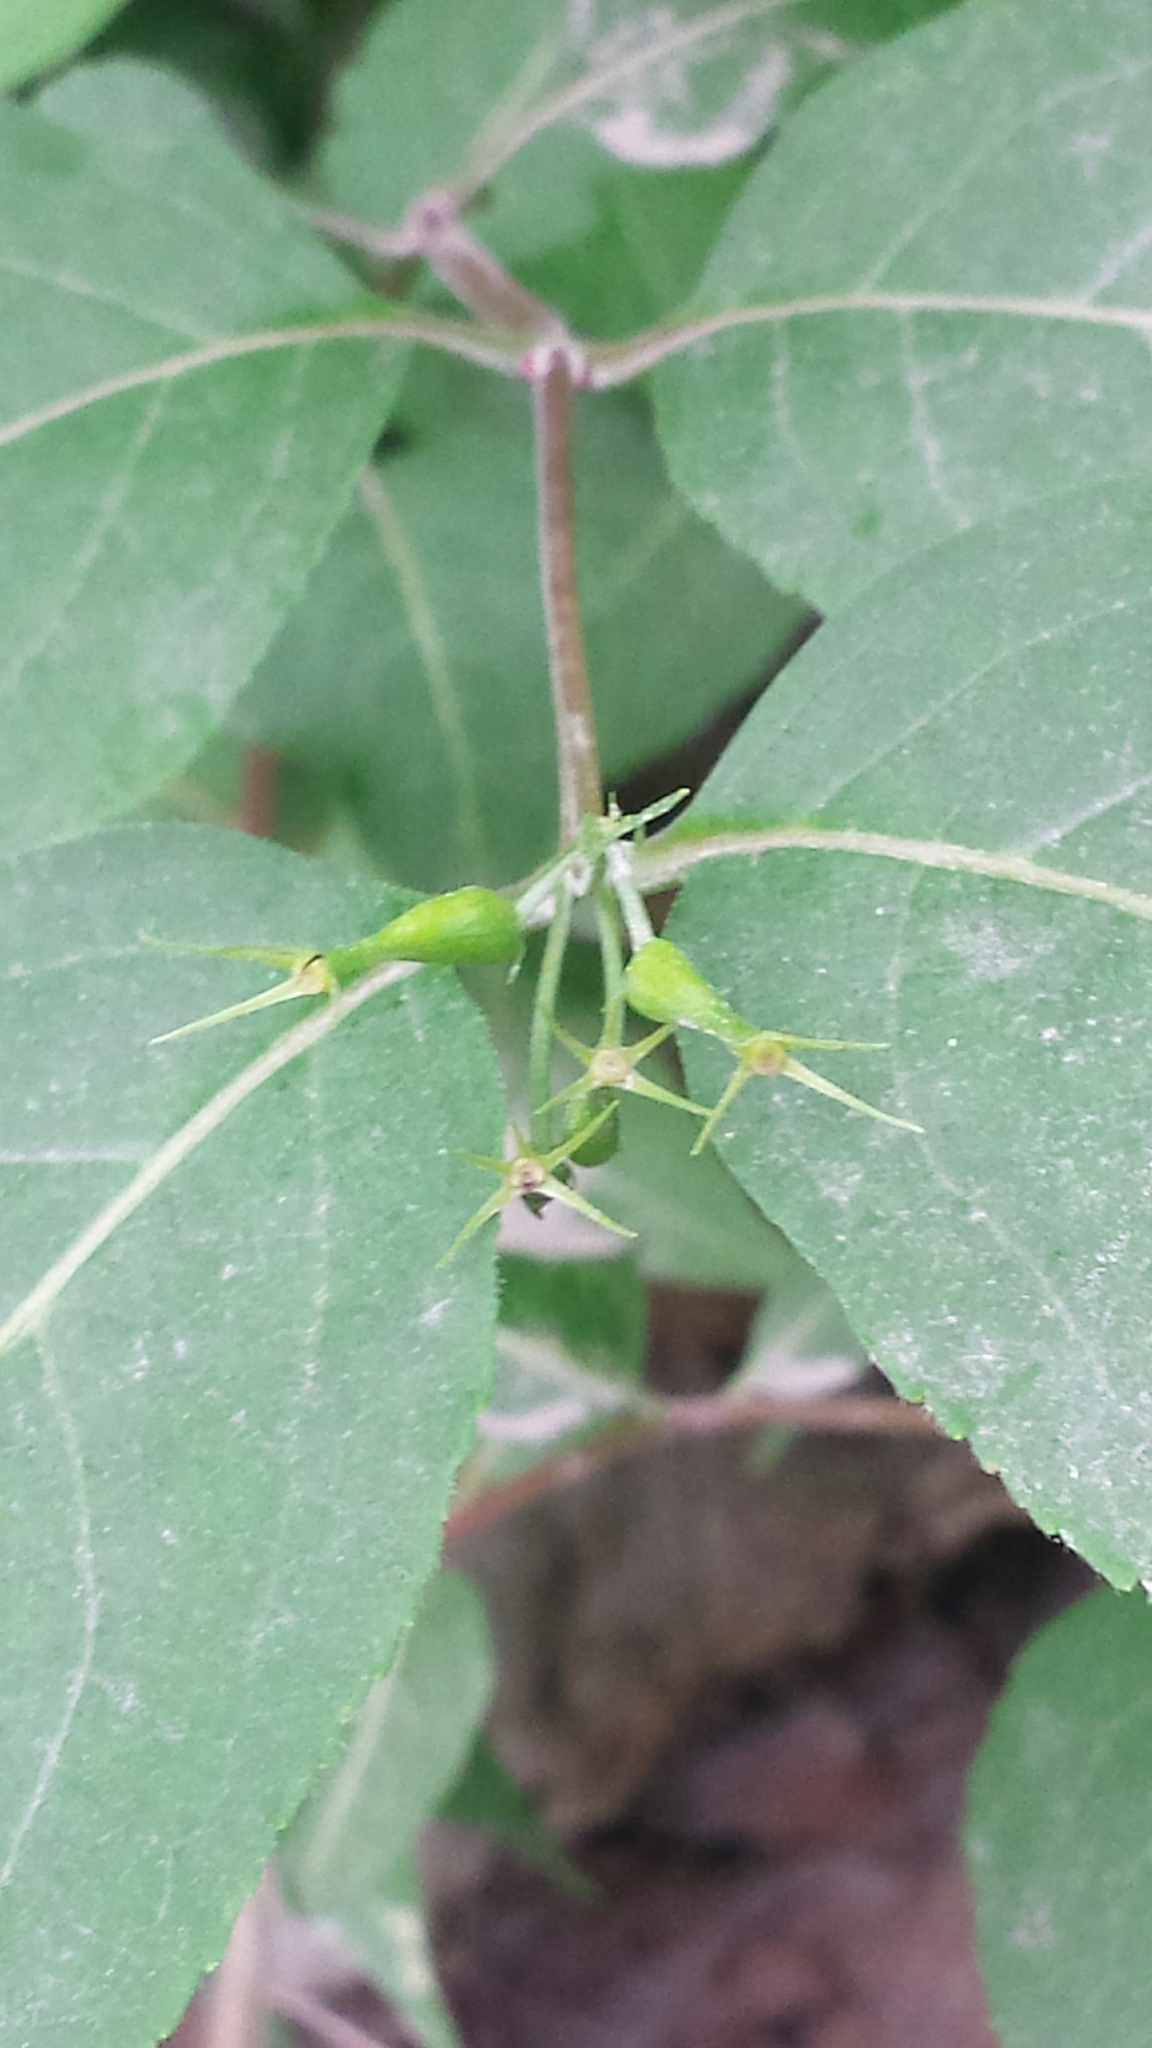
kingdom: Plantae
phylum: Tracheophyta
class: Magnoliopsida
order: Dipsacales
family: Caprifoliaceae
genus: Diervilla
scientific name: Diervilla lonicera
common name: Bush-honeysuckle
